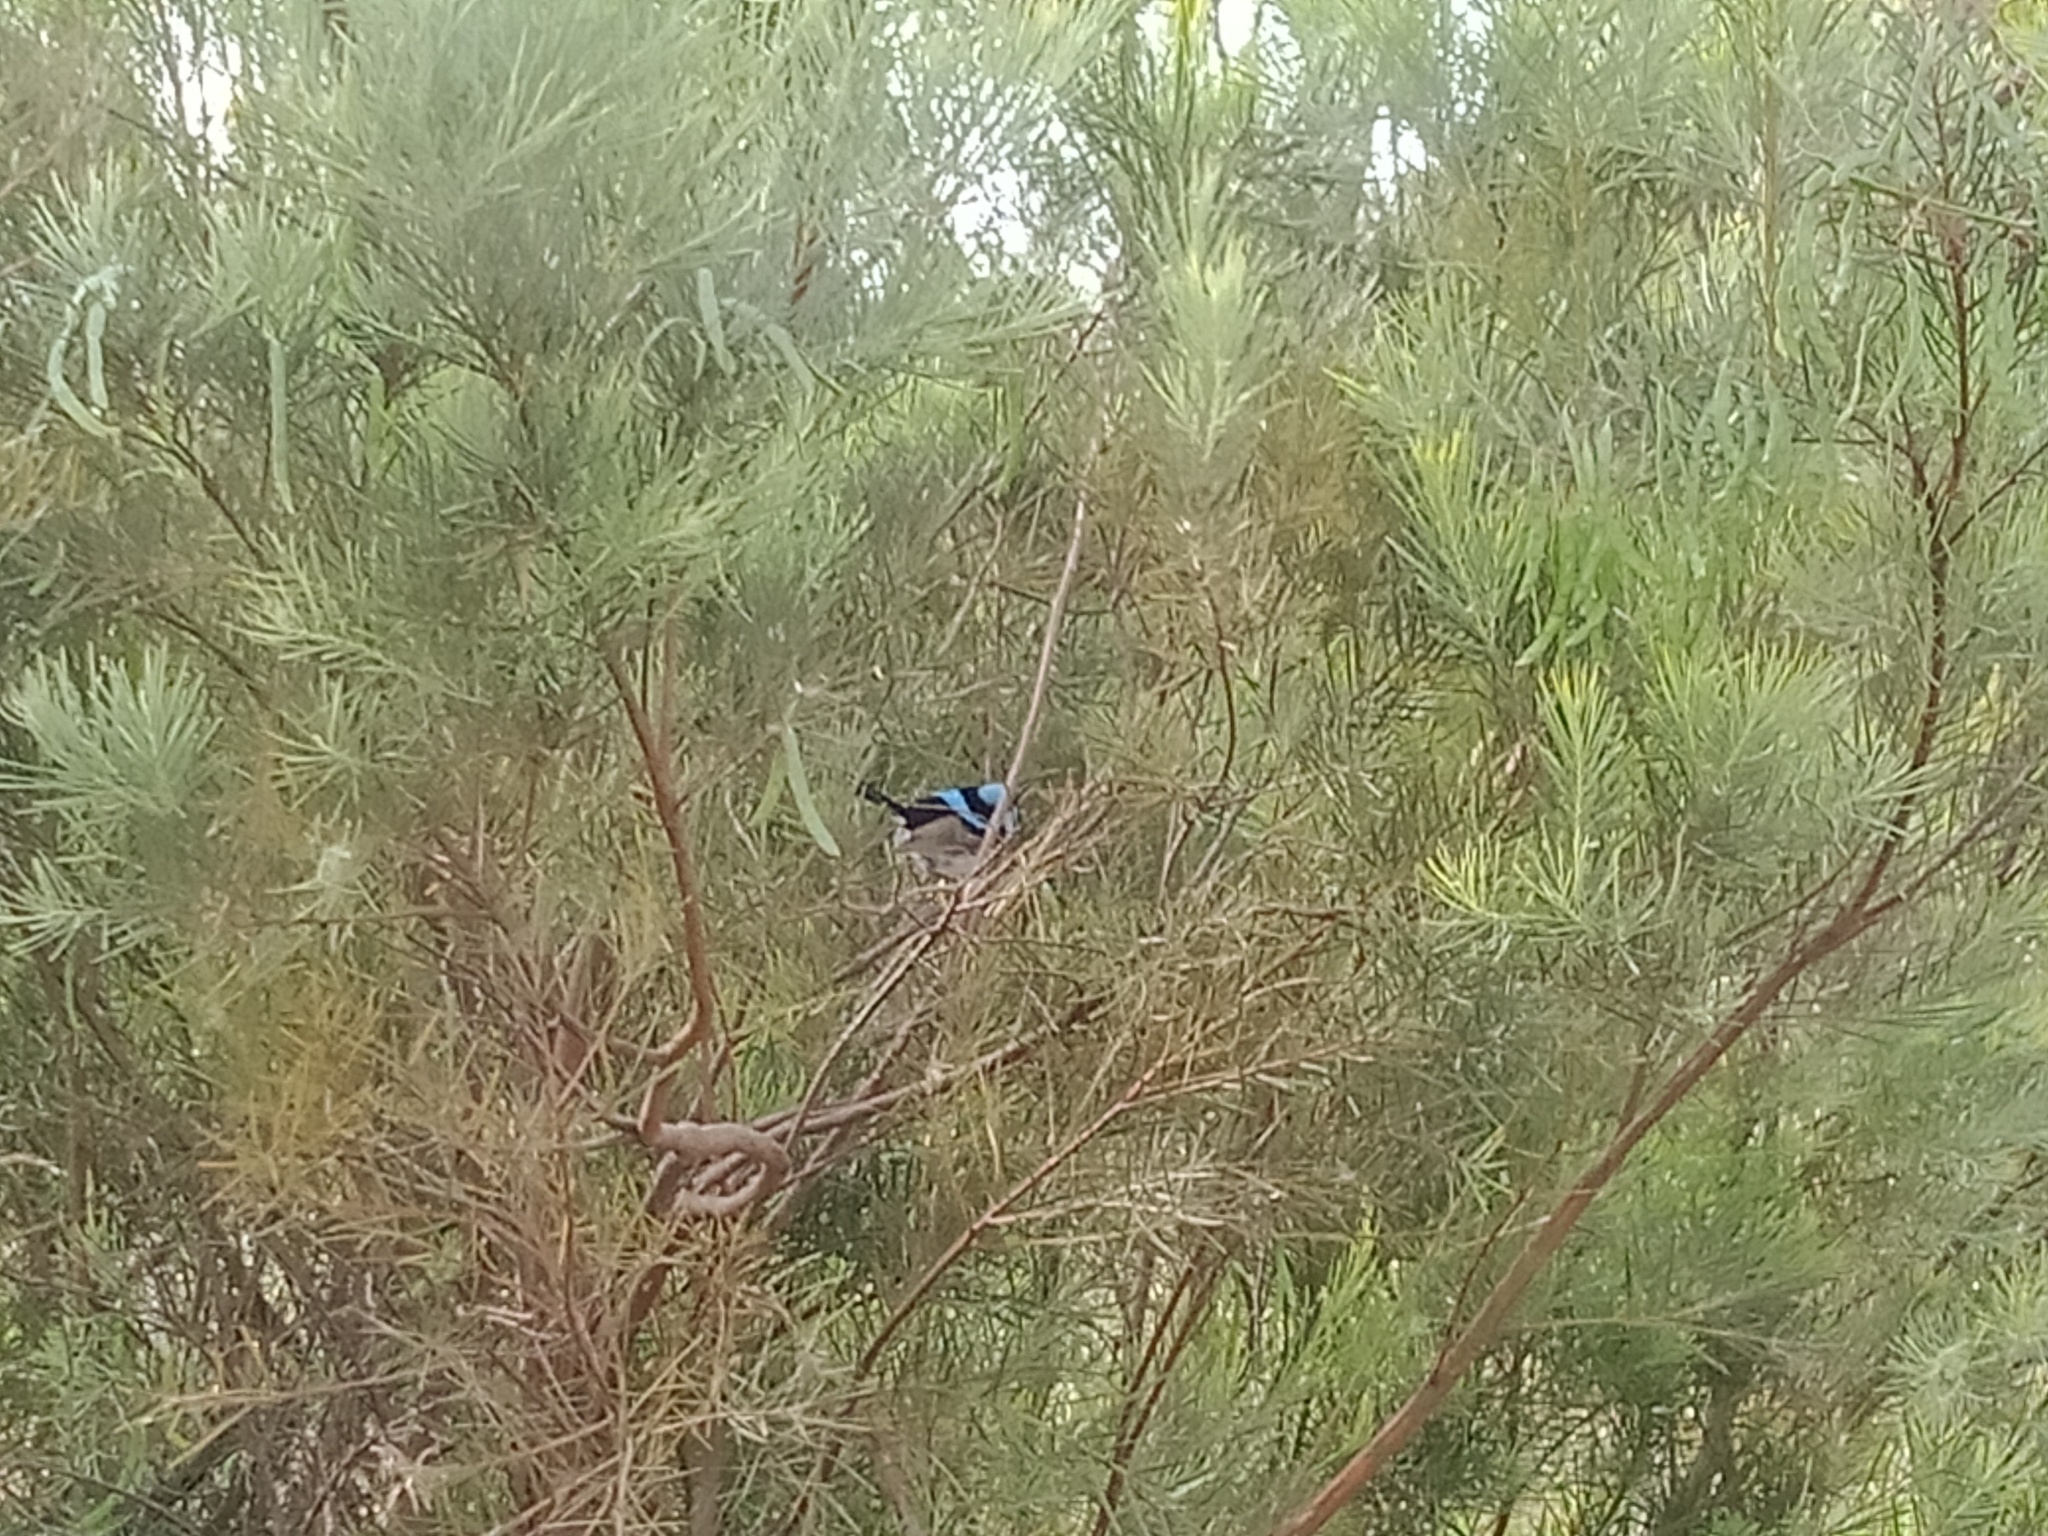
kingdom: Animalia
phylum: Chordata
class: Aves
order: Passeriformes
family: Maluridae
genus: Malurus
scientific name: Malurus cyaneus
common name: Superb fairywren
